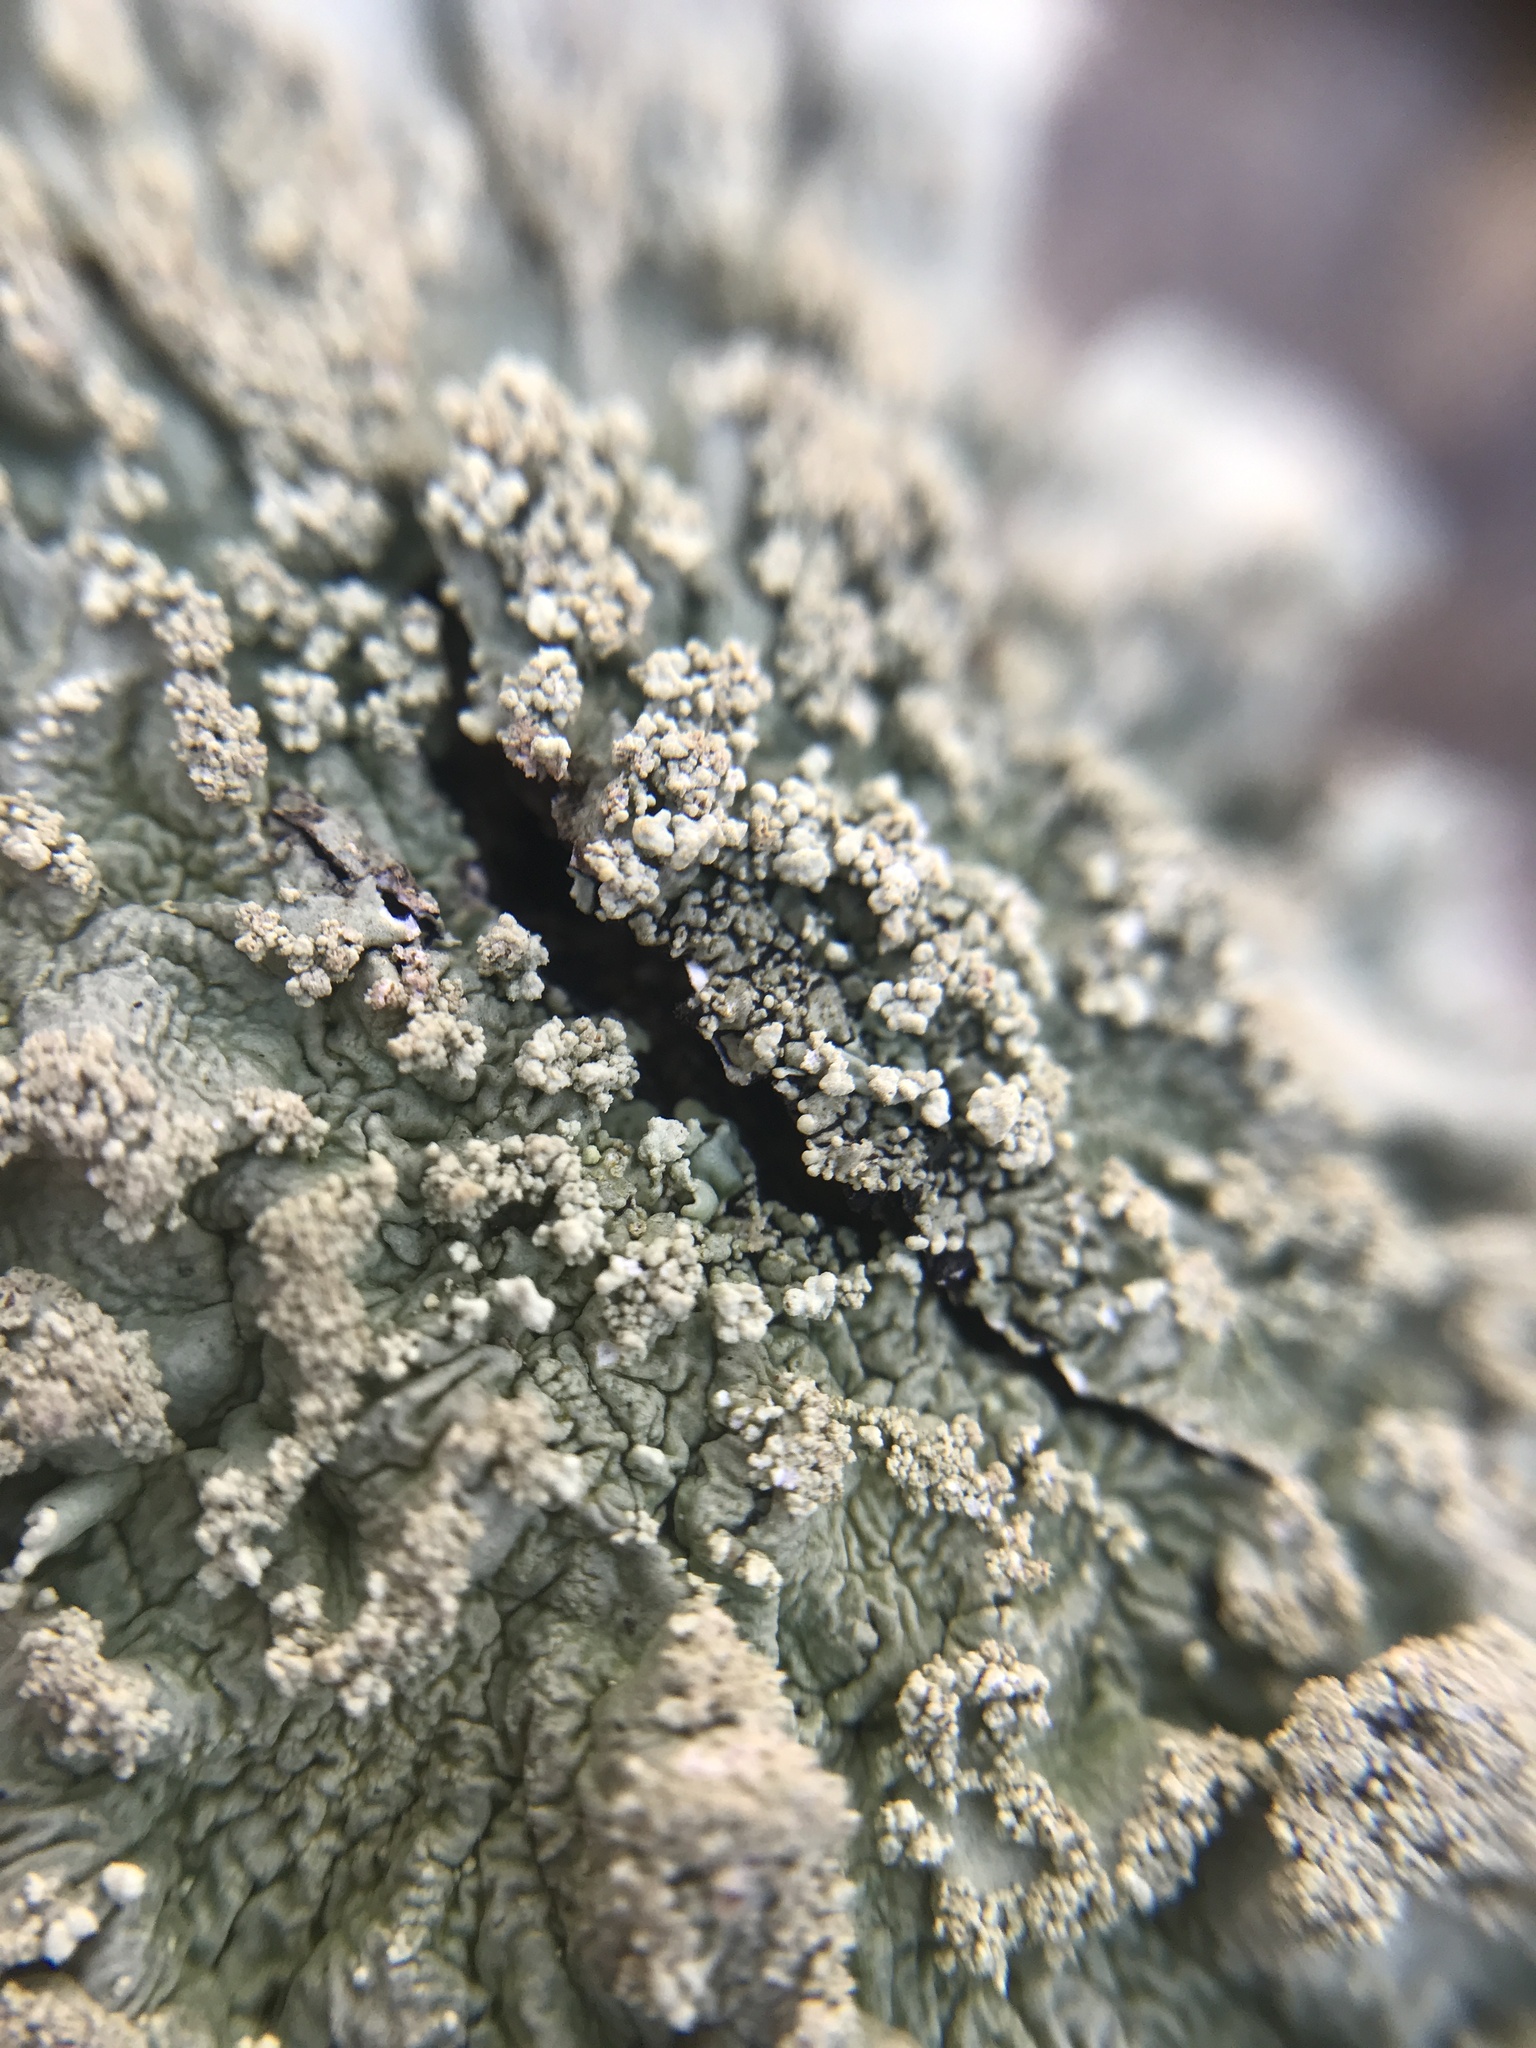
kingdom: Fungi
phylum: Ascomycota
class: Lecanoromycetes
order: Lecanorales
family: Parmeliaceae
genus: Flavoparmelia
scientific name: Flavoparmelia caperata
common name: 40-mile per hour lichen
